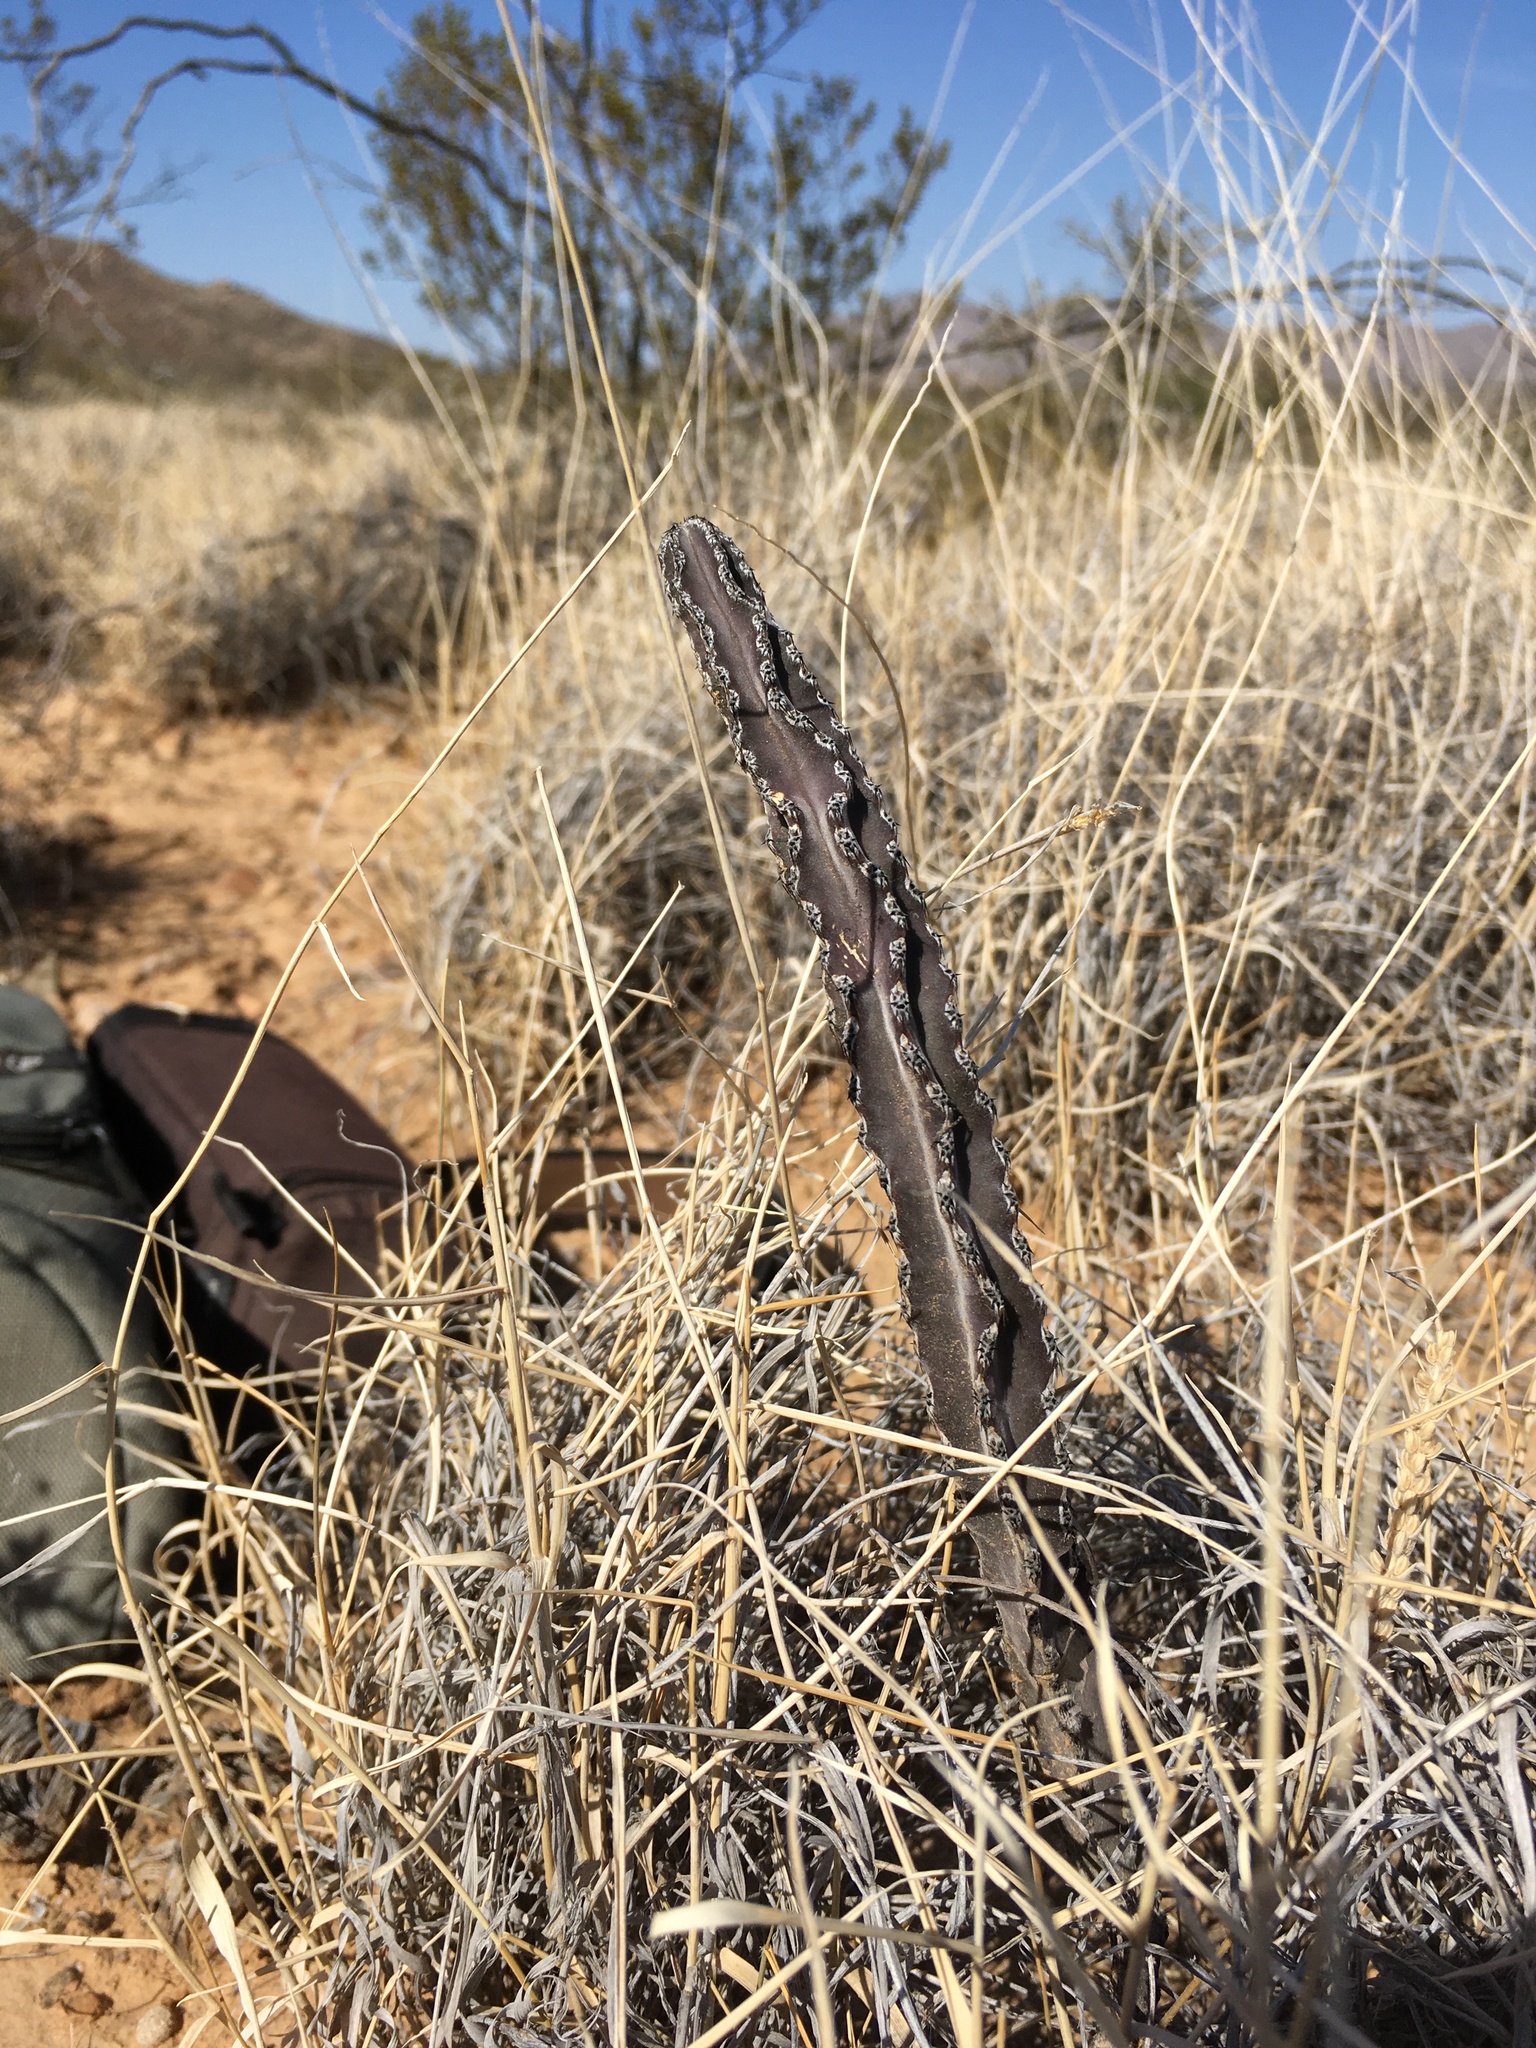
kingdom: Plantae
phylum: Tracheophyta
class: Magnoliopsida
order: Caryophyllales
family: Cactaceae
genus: Peniocereus
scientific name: Peniocereus greggii
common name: Desert night-blooming cereus
